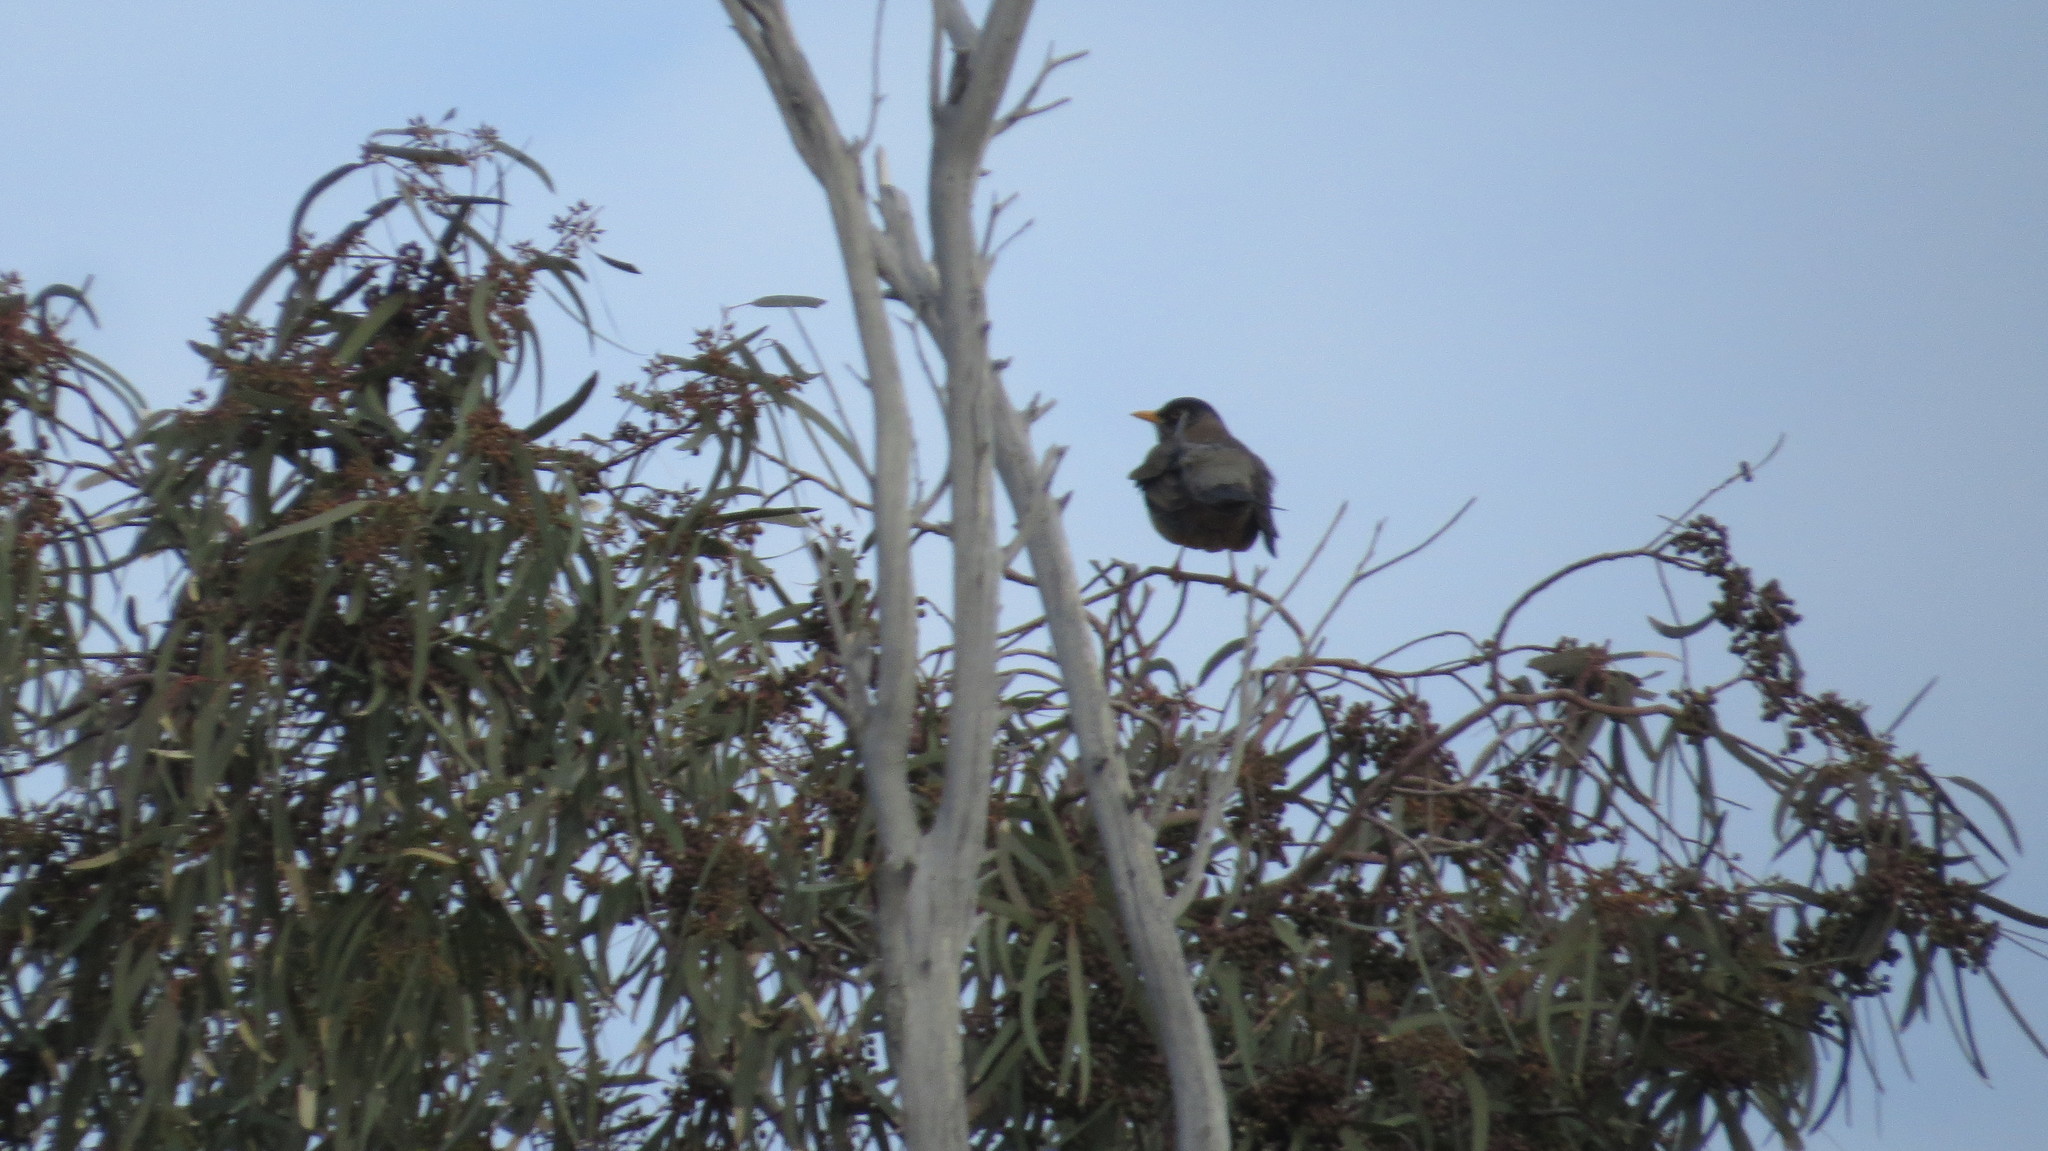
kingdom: Animalia
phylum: Chordata
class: Aves
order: Passeriformes
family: Turdidae
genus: Turdus
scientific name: Turdus chiguanco
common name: Chiguanco thrush
